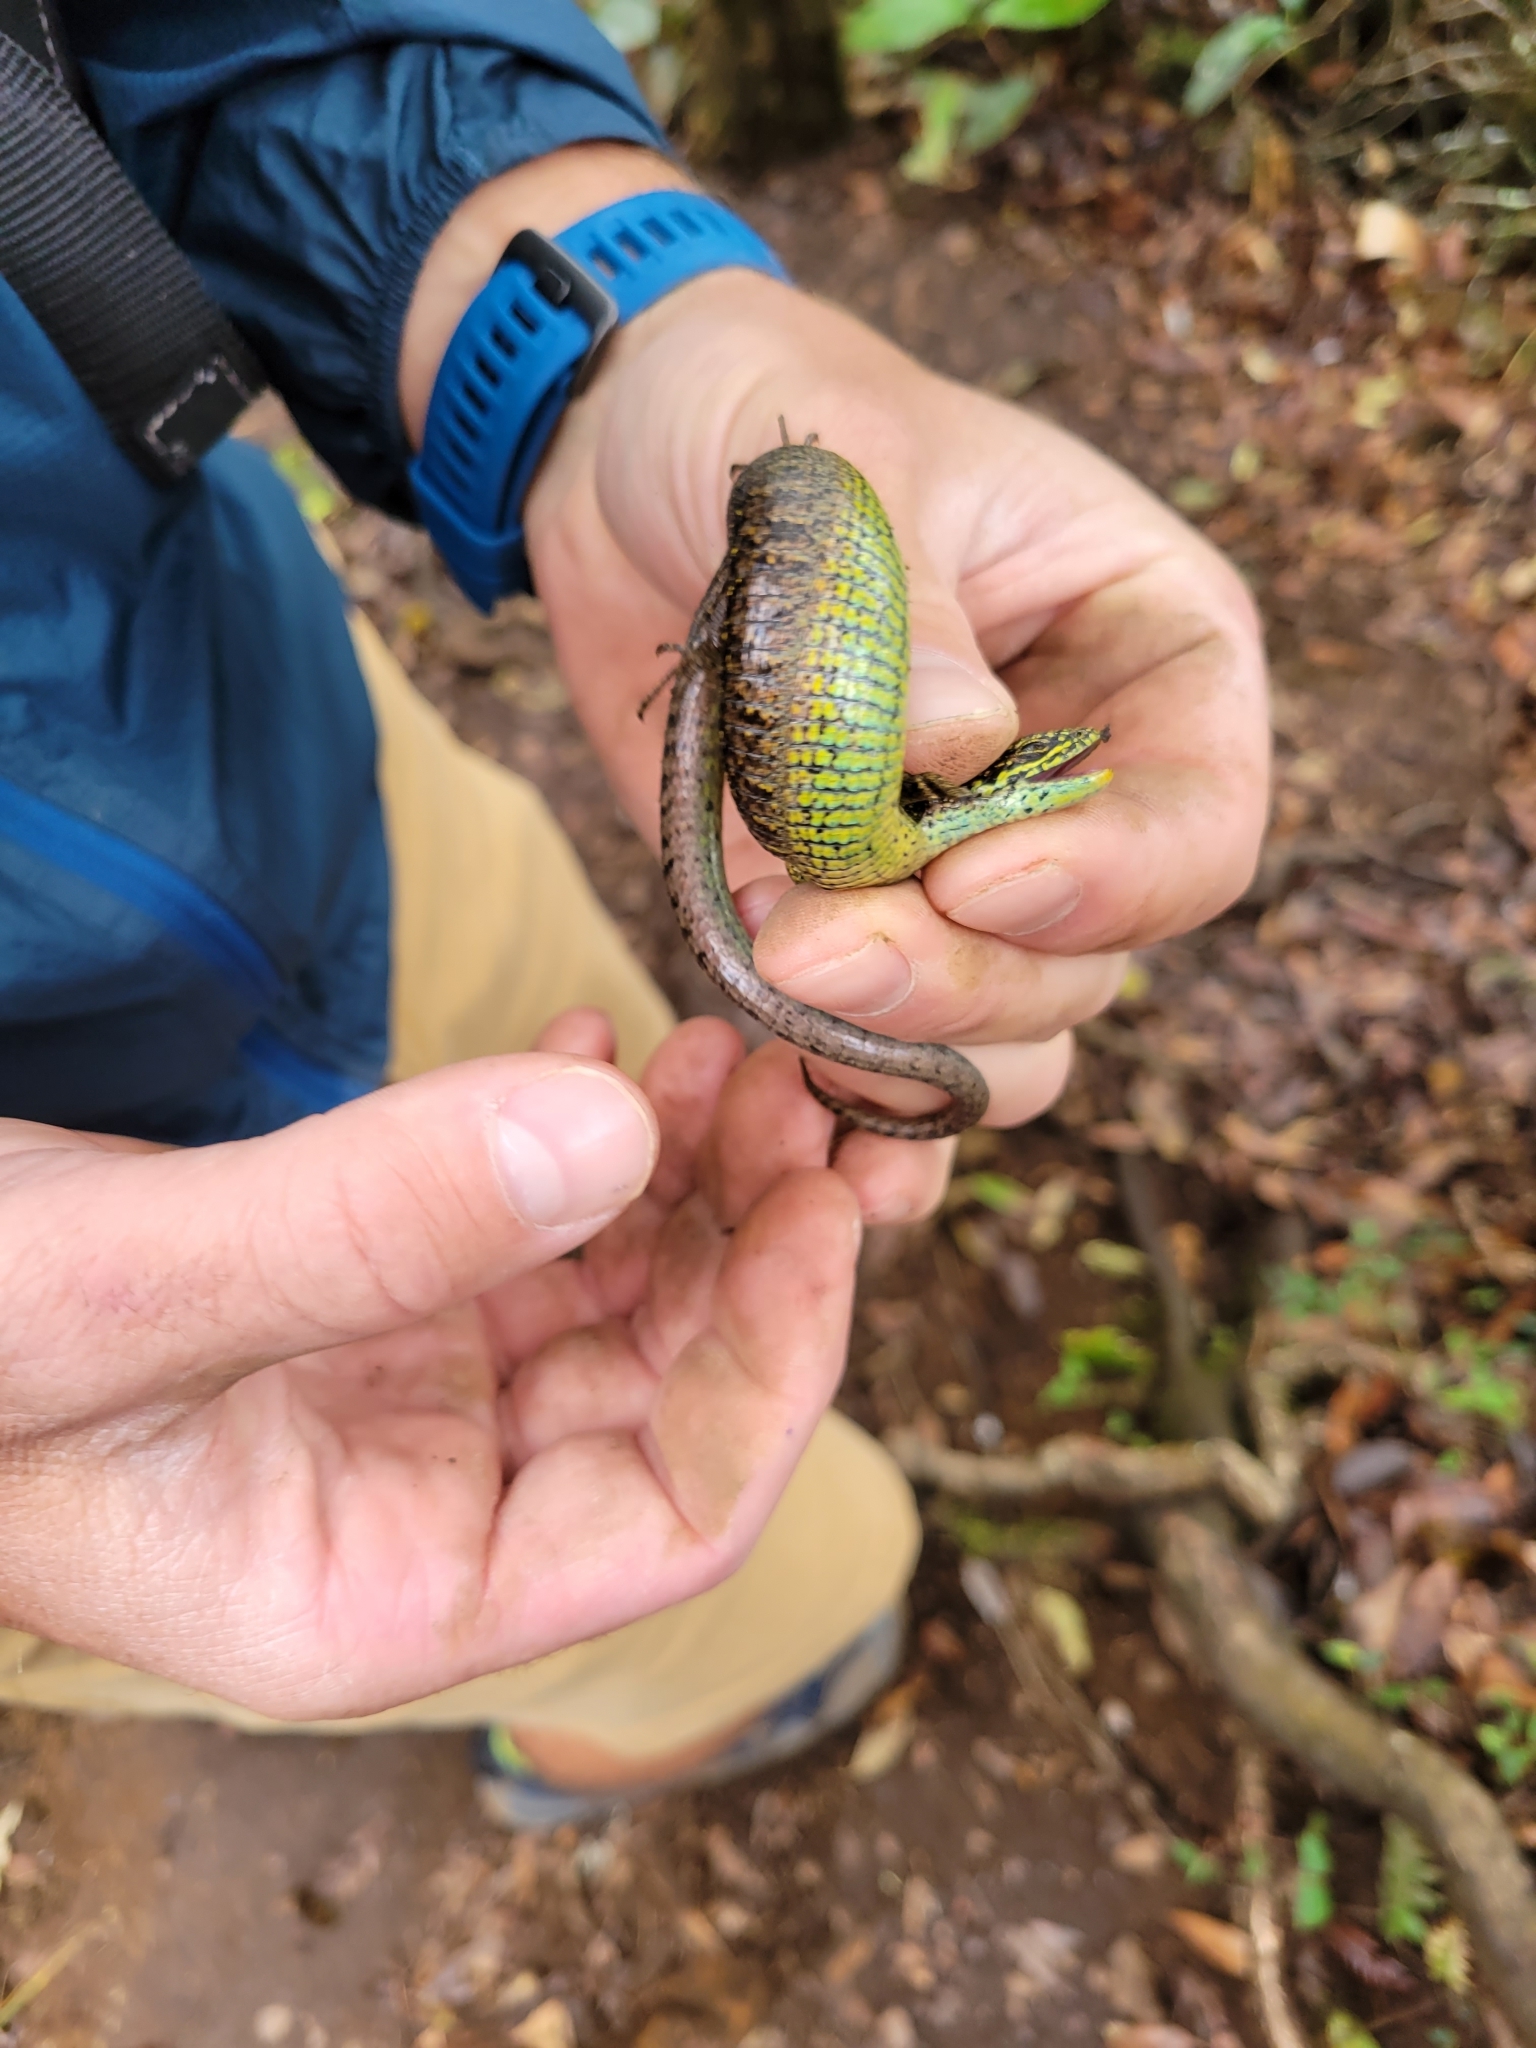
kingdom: Animalia
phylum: Chordata
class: Squamata
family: Anguidae
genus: Abronia
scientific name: Abronia monticola
